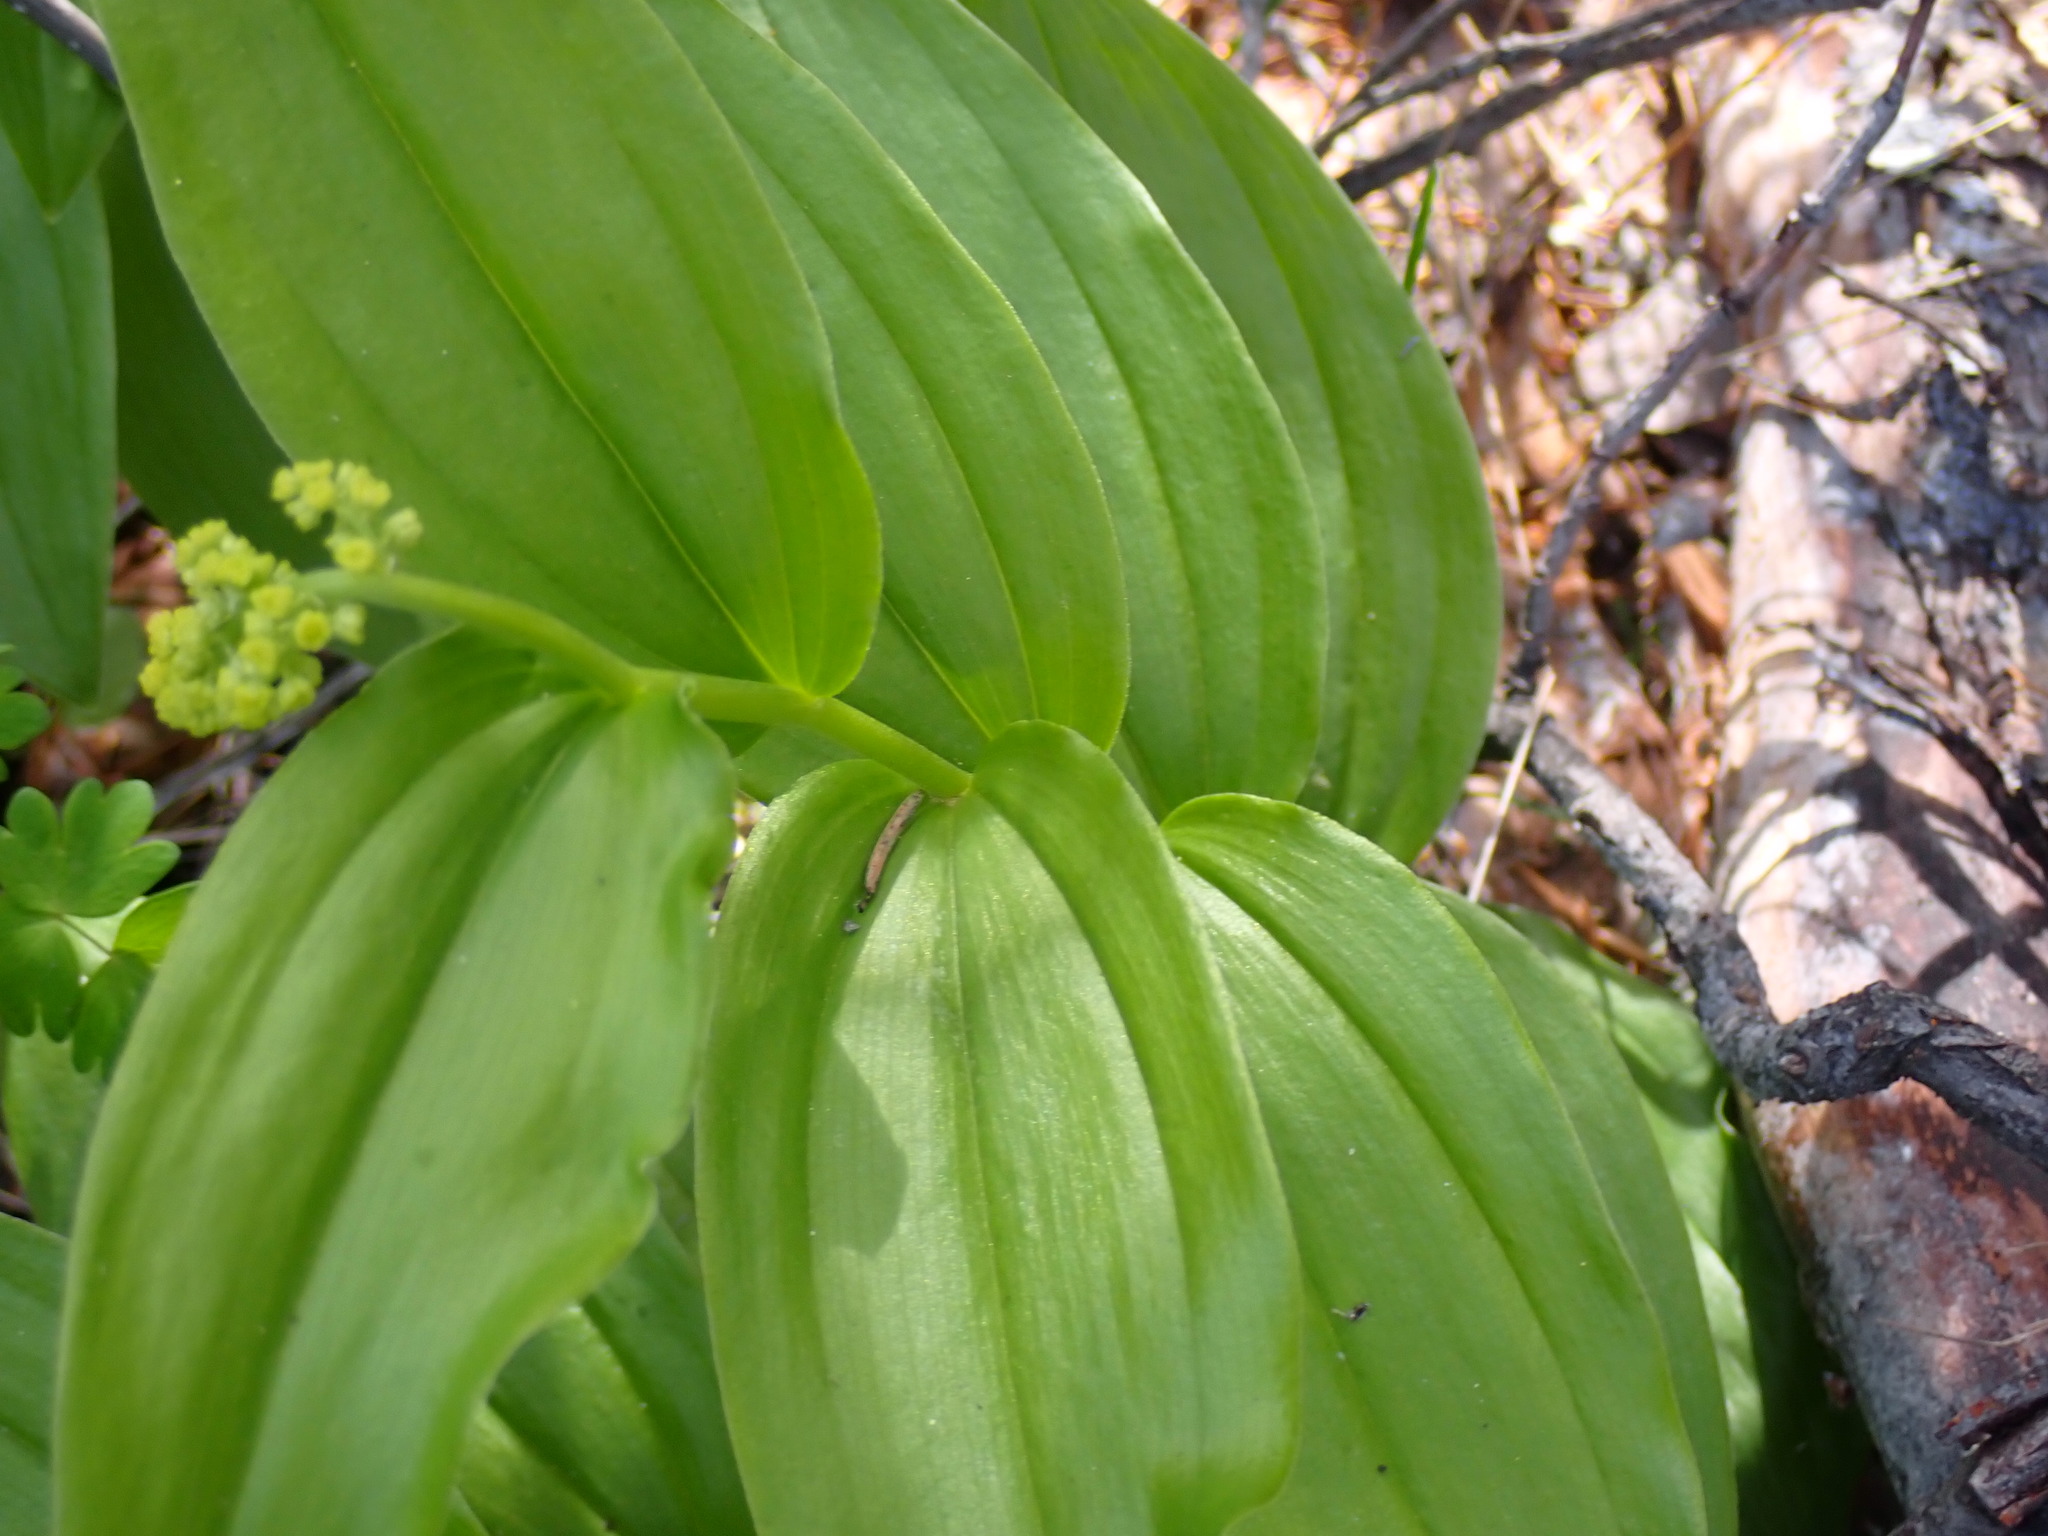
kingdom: Plantae
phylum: Tracheophyta
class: Liliopsida
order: Asparagales
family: Asparagaceae
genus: Maianthemum
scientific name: Maianthemum racemosum
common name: False spikenard
